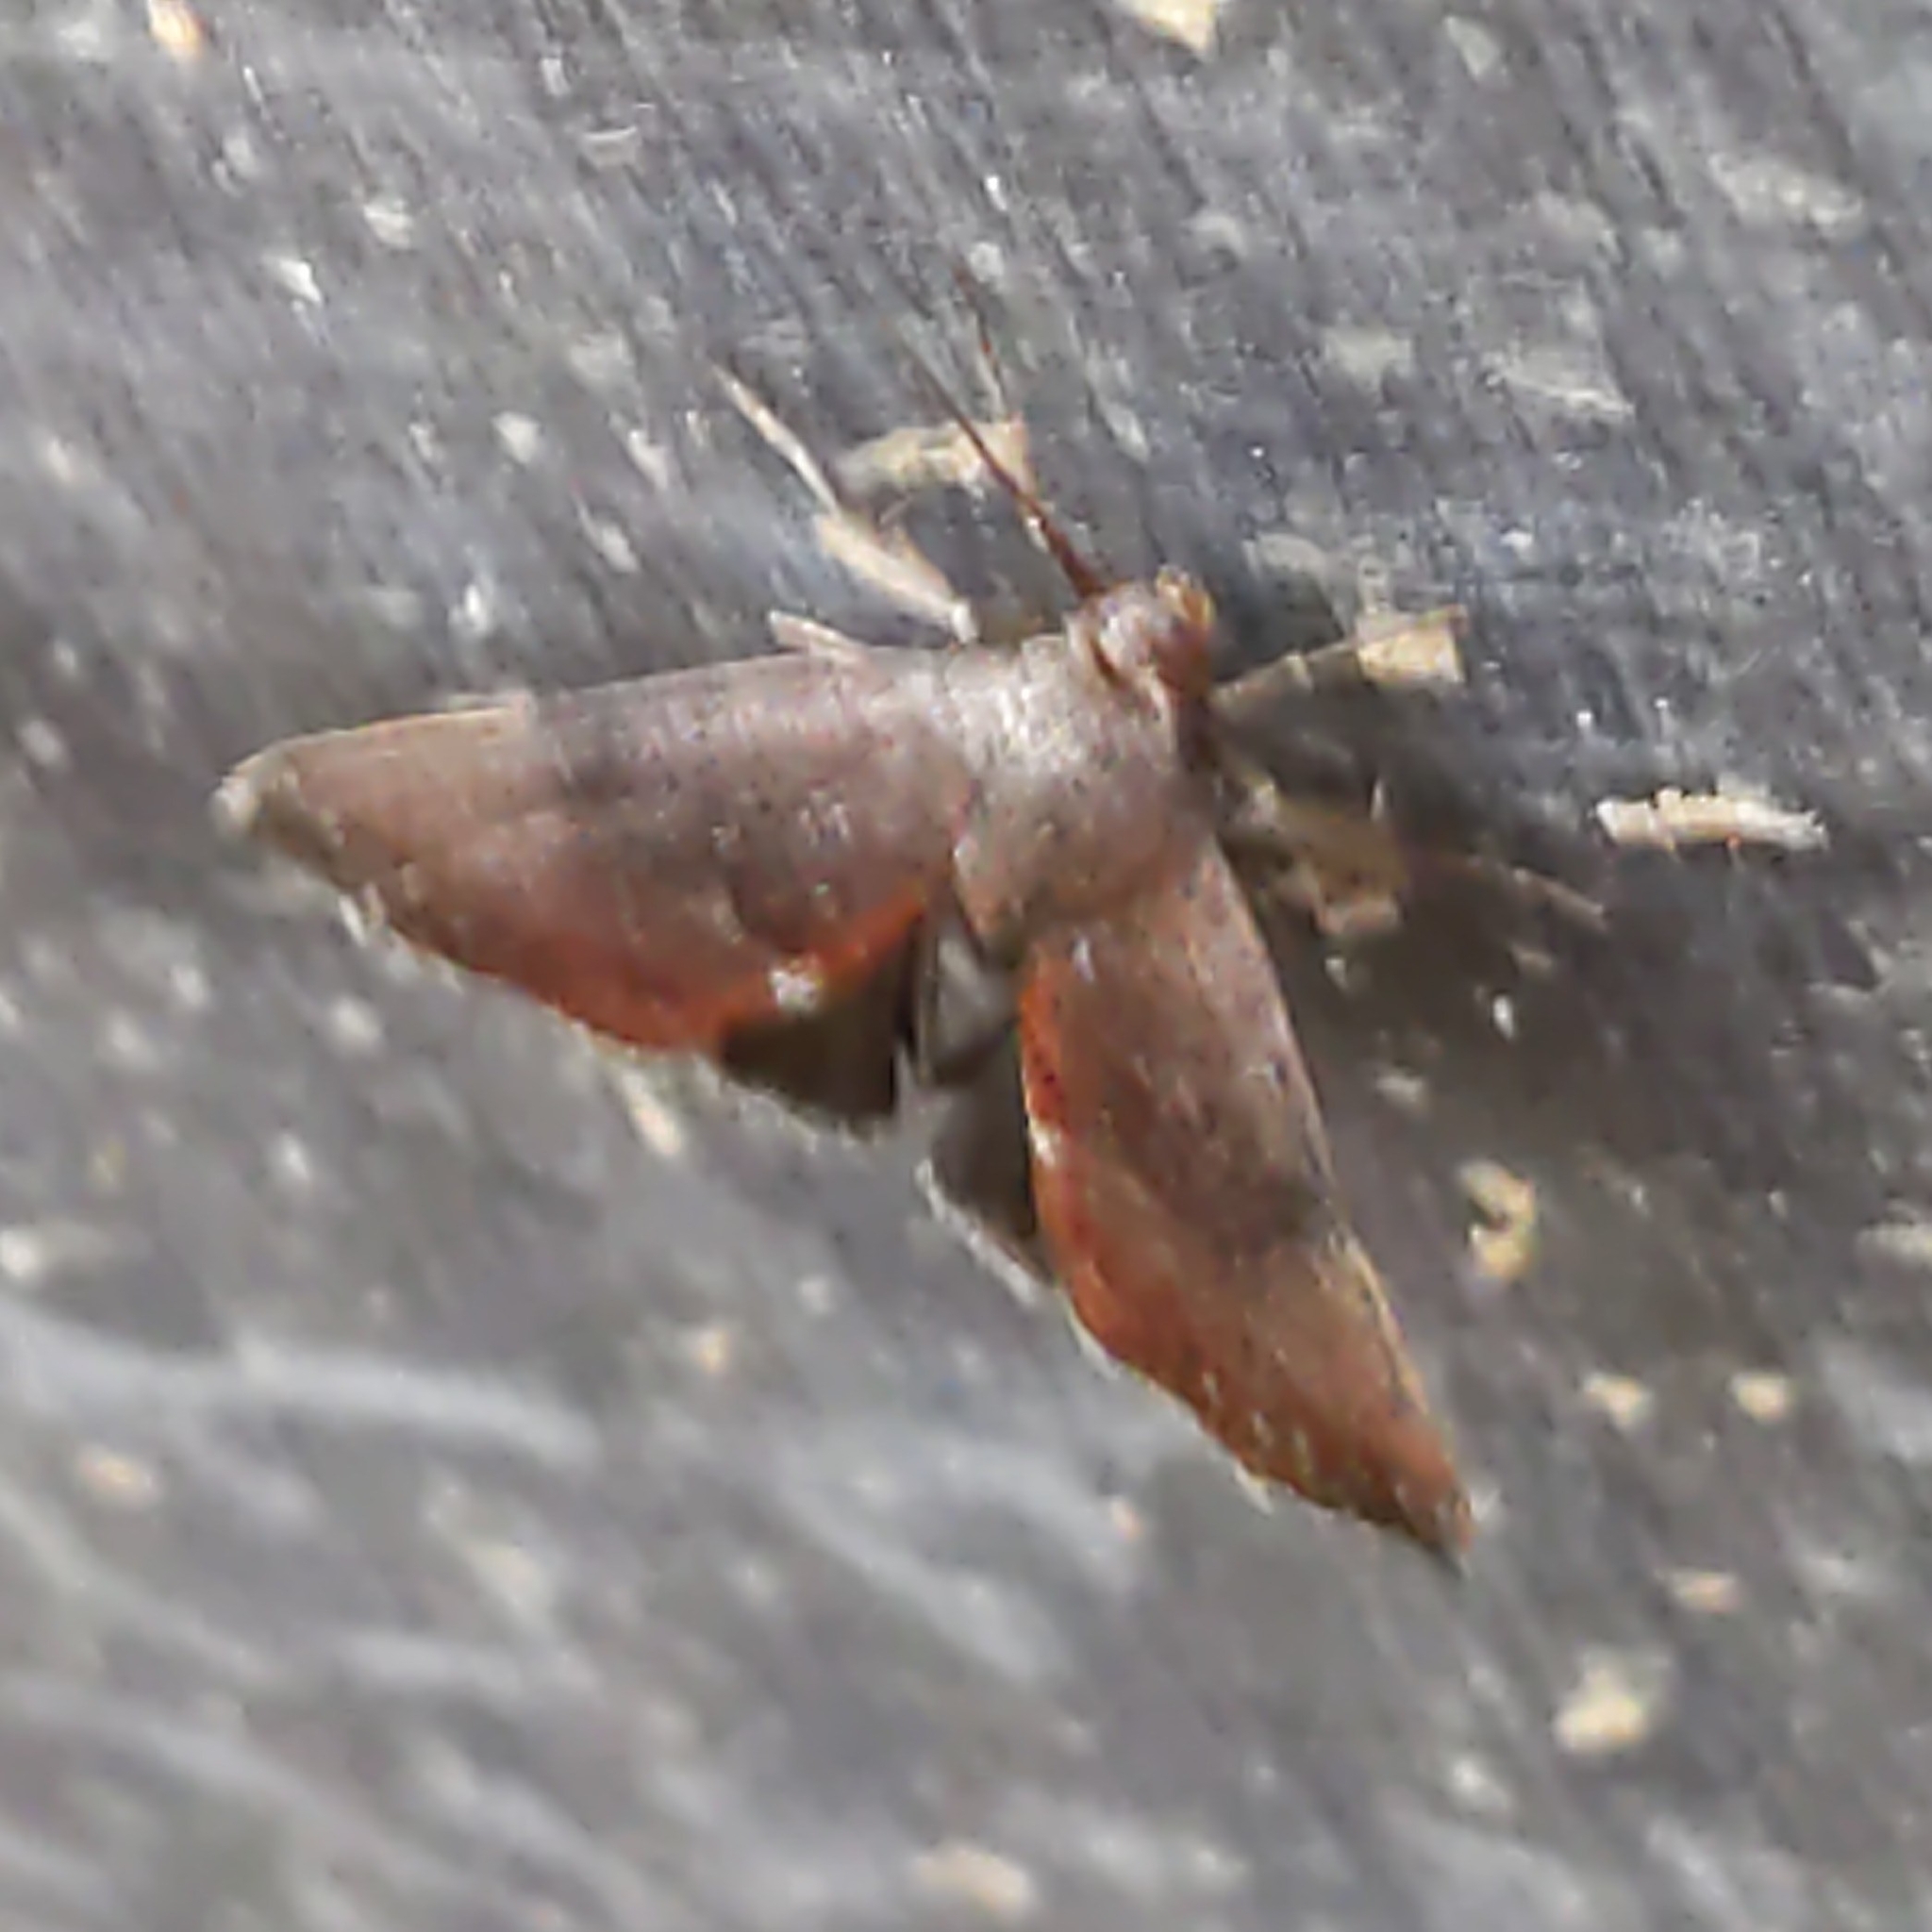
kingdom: Animalia
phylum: Arthropoda
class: Insecta
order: Lepidoptera
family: Noctuidae
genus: Galgula
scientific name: Galgula partita
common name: Wedgeling
